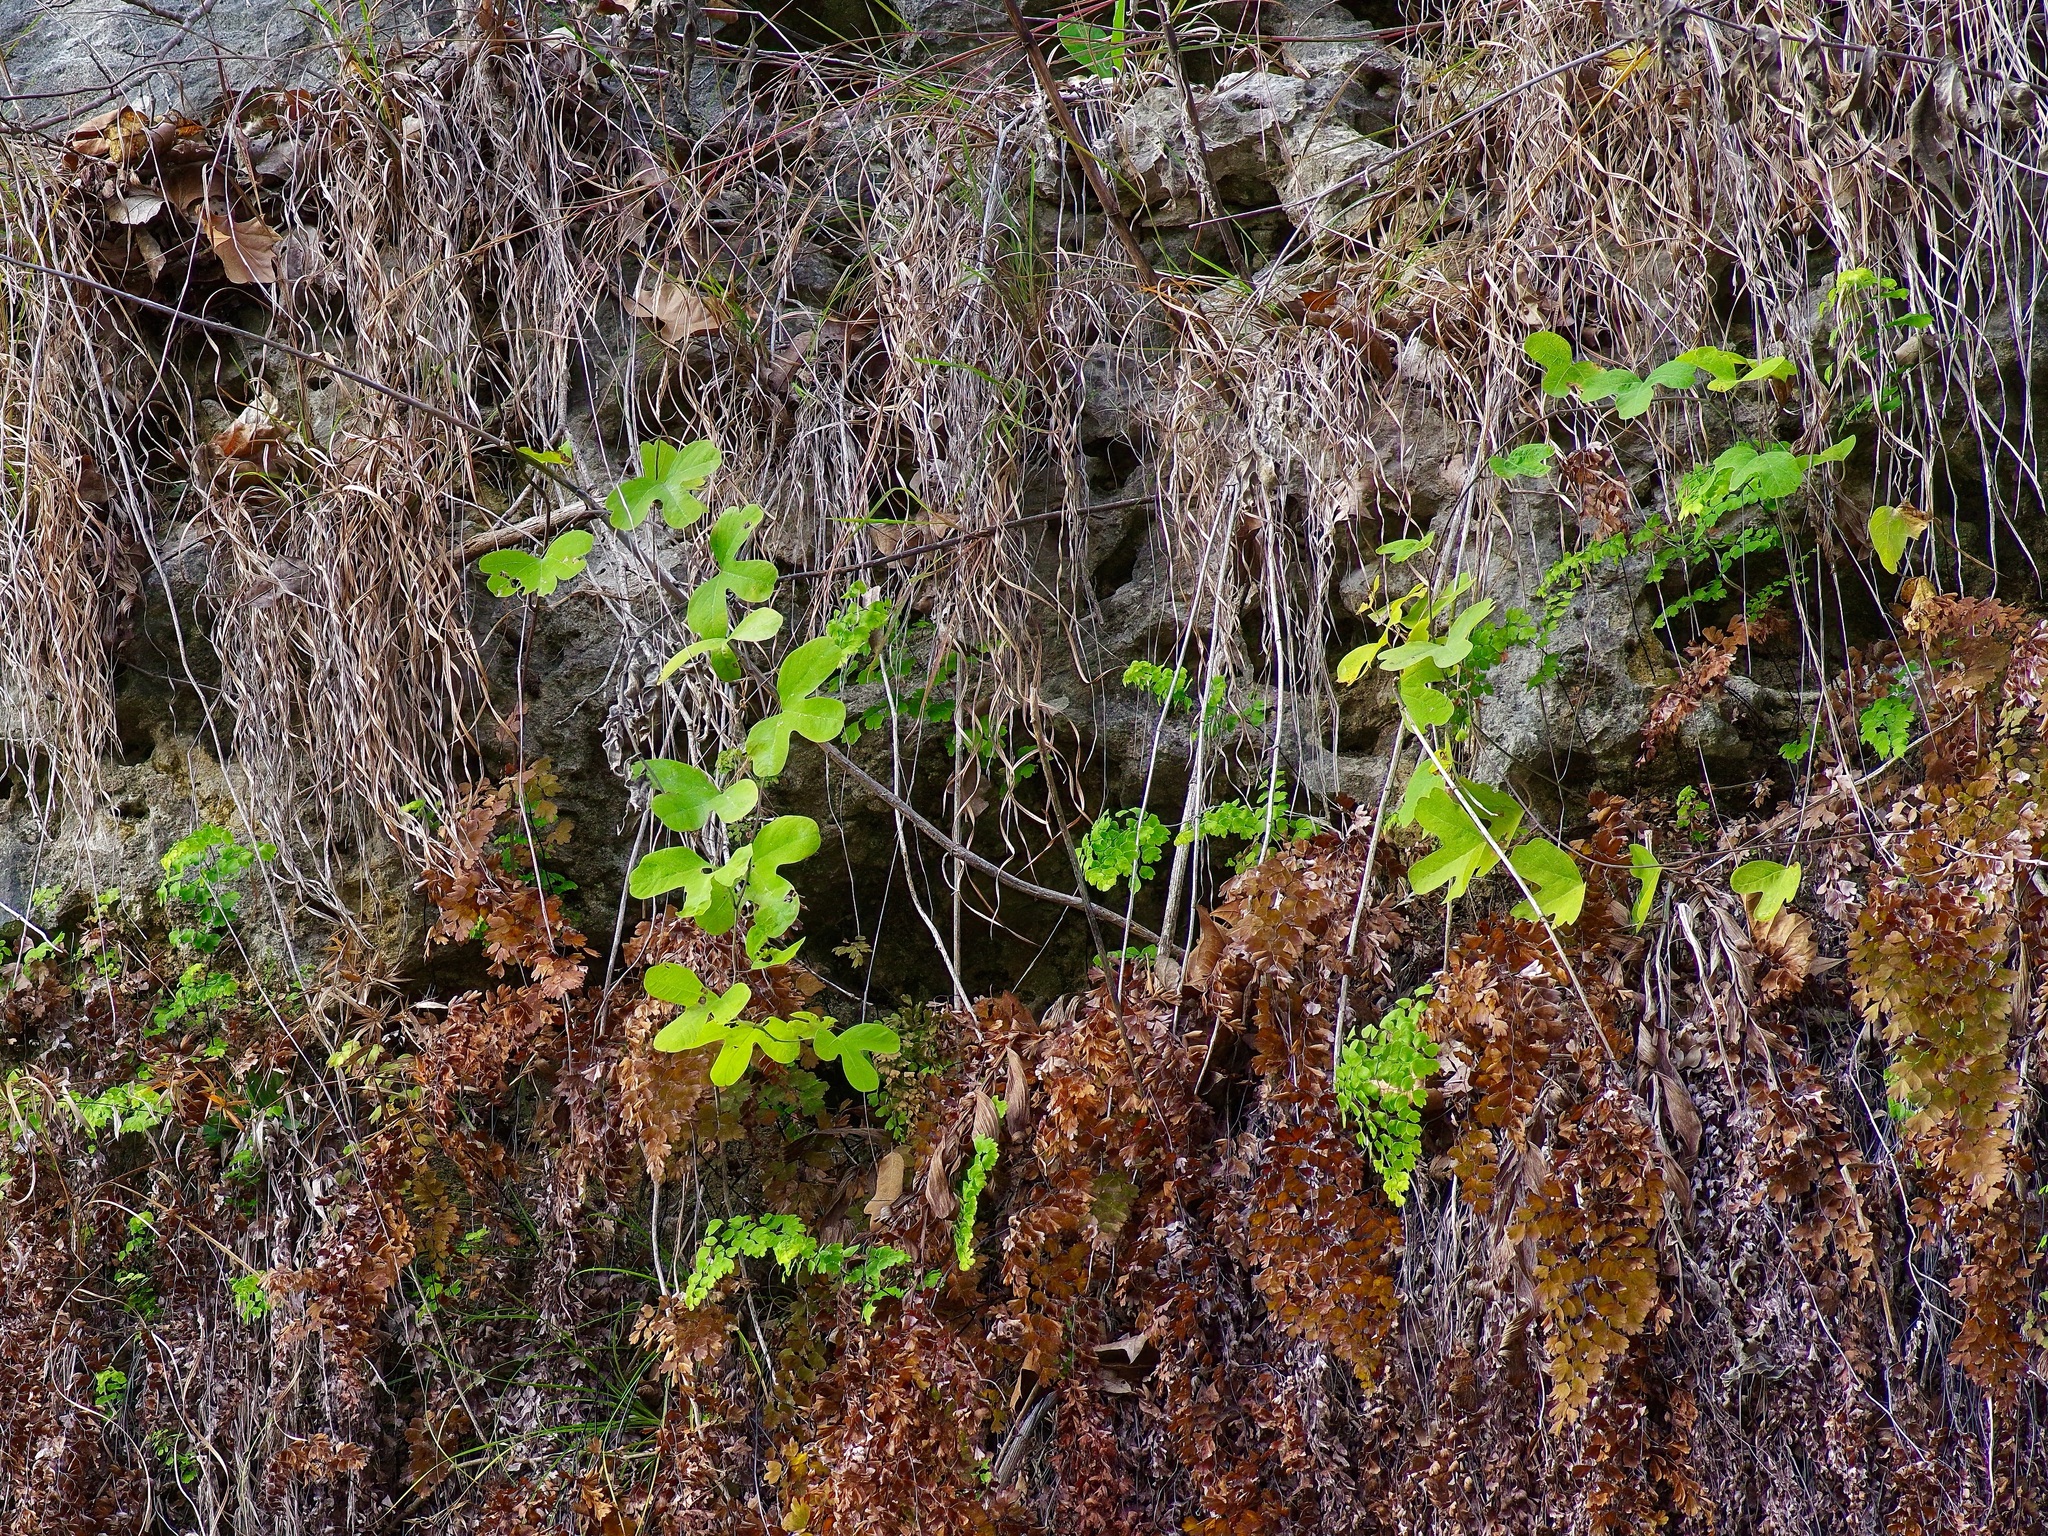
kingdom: Plantae
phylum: Tracheophyta
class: Magnoliopsida
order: Malpighiales
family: Passifloraceae
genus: Passiflora
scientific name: Passiflora affinis
